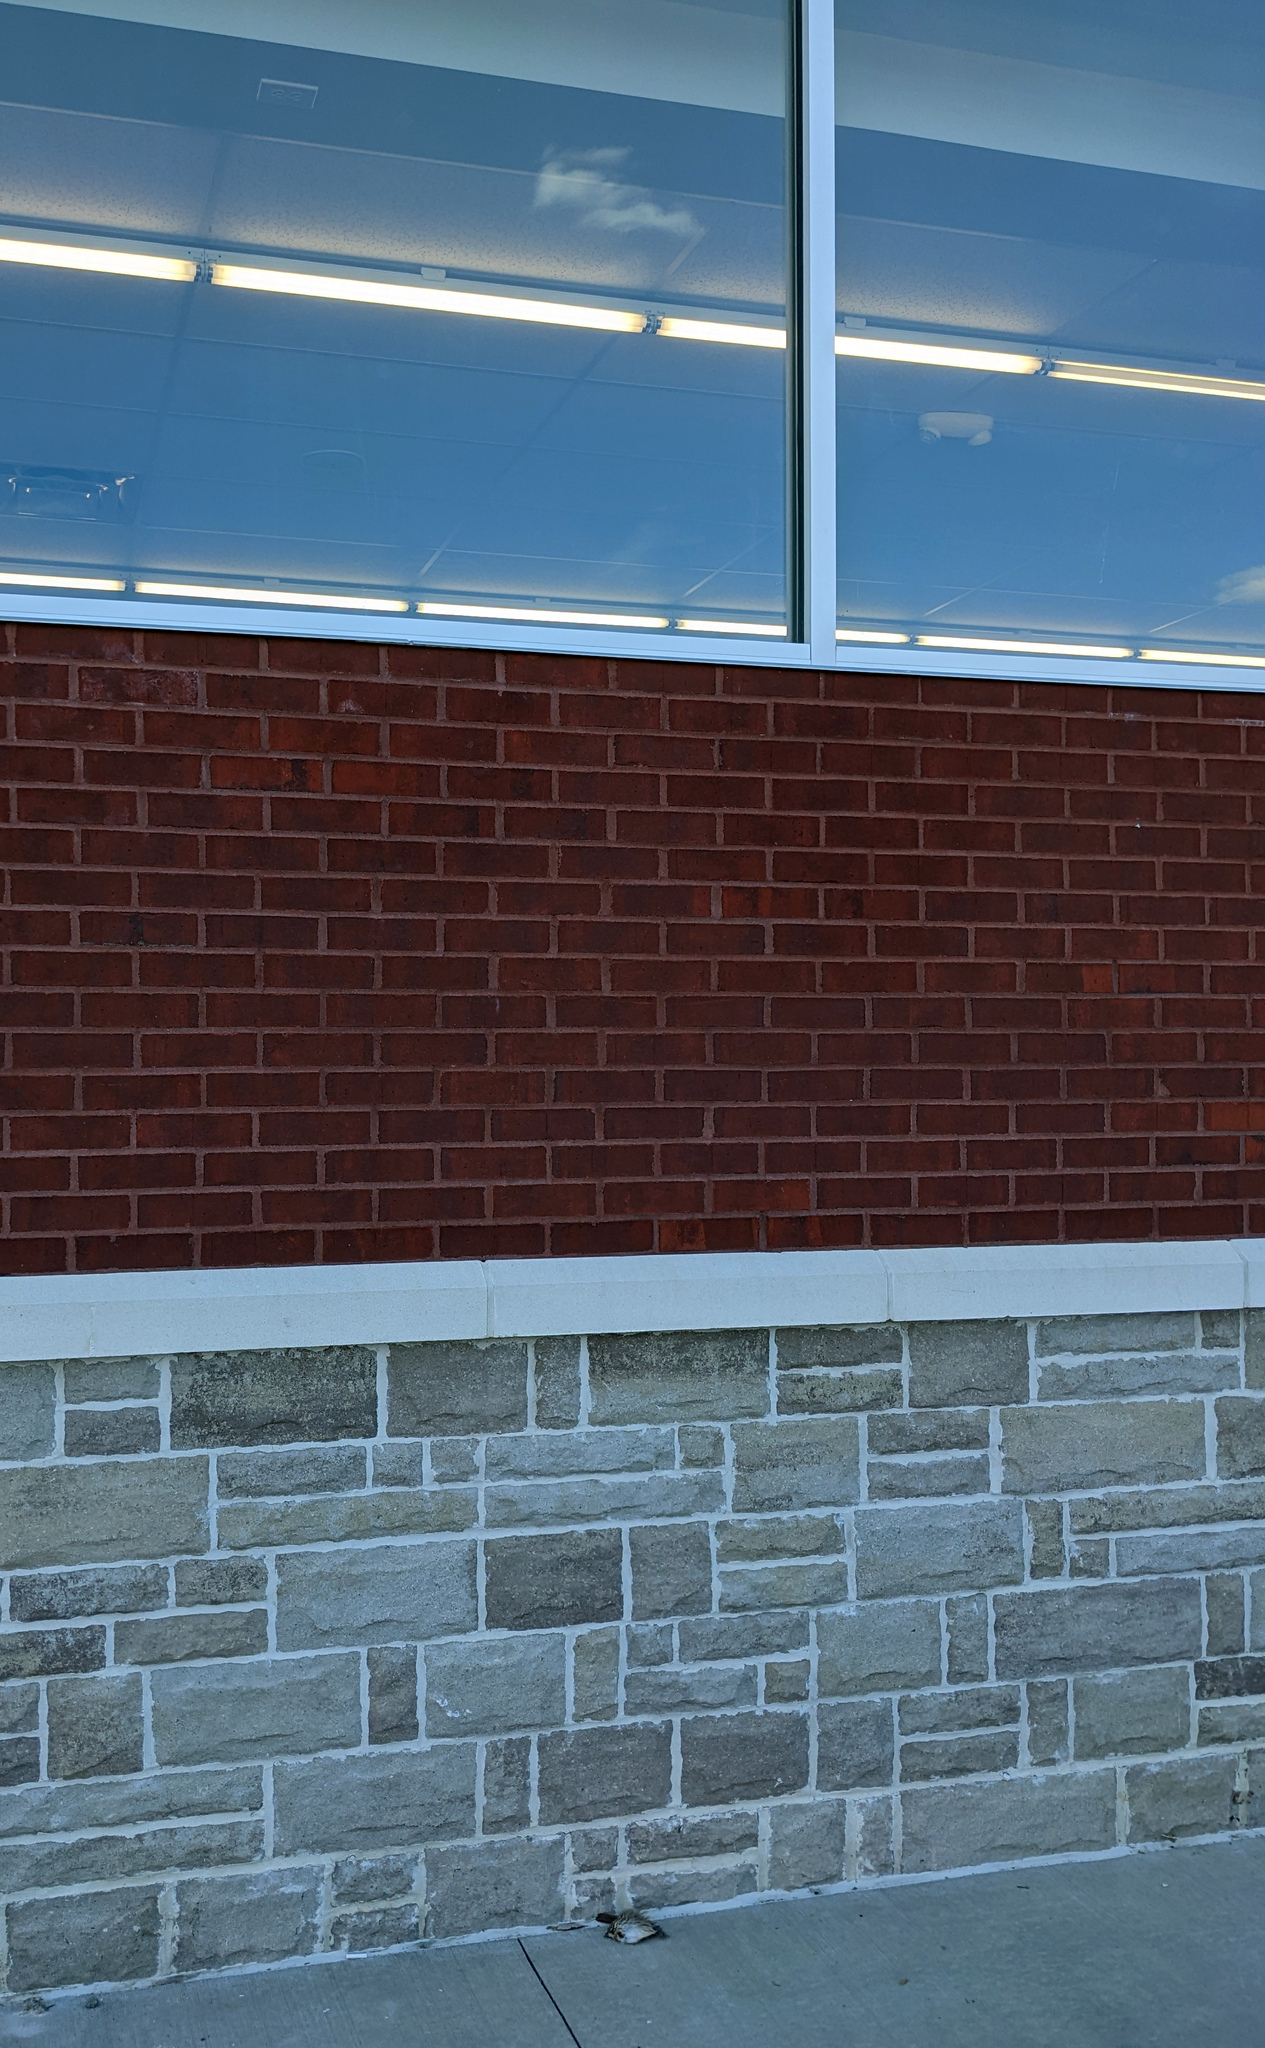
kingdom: Animalia
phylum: Chordata
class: Aves
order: Passeriformes
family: Passerellidae
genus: Melospiza
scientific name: Melospiza melodia
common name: Song sparrow
